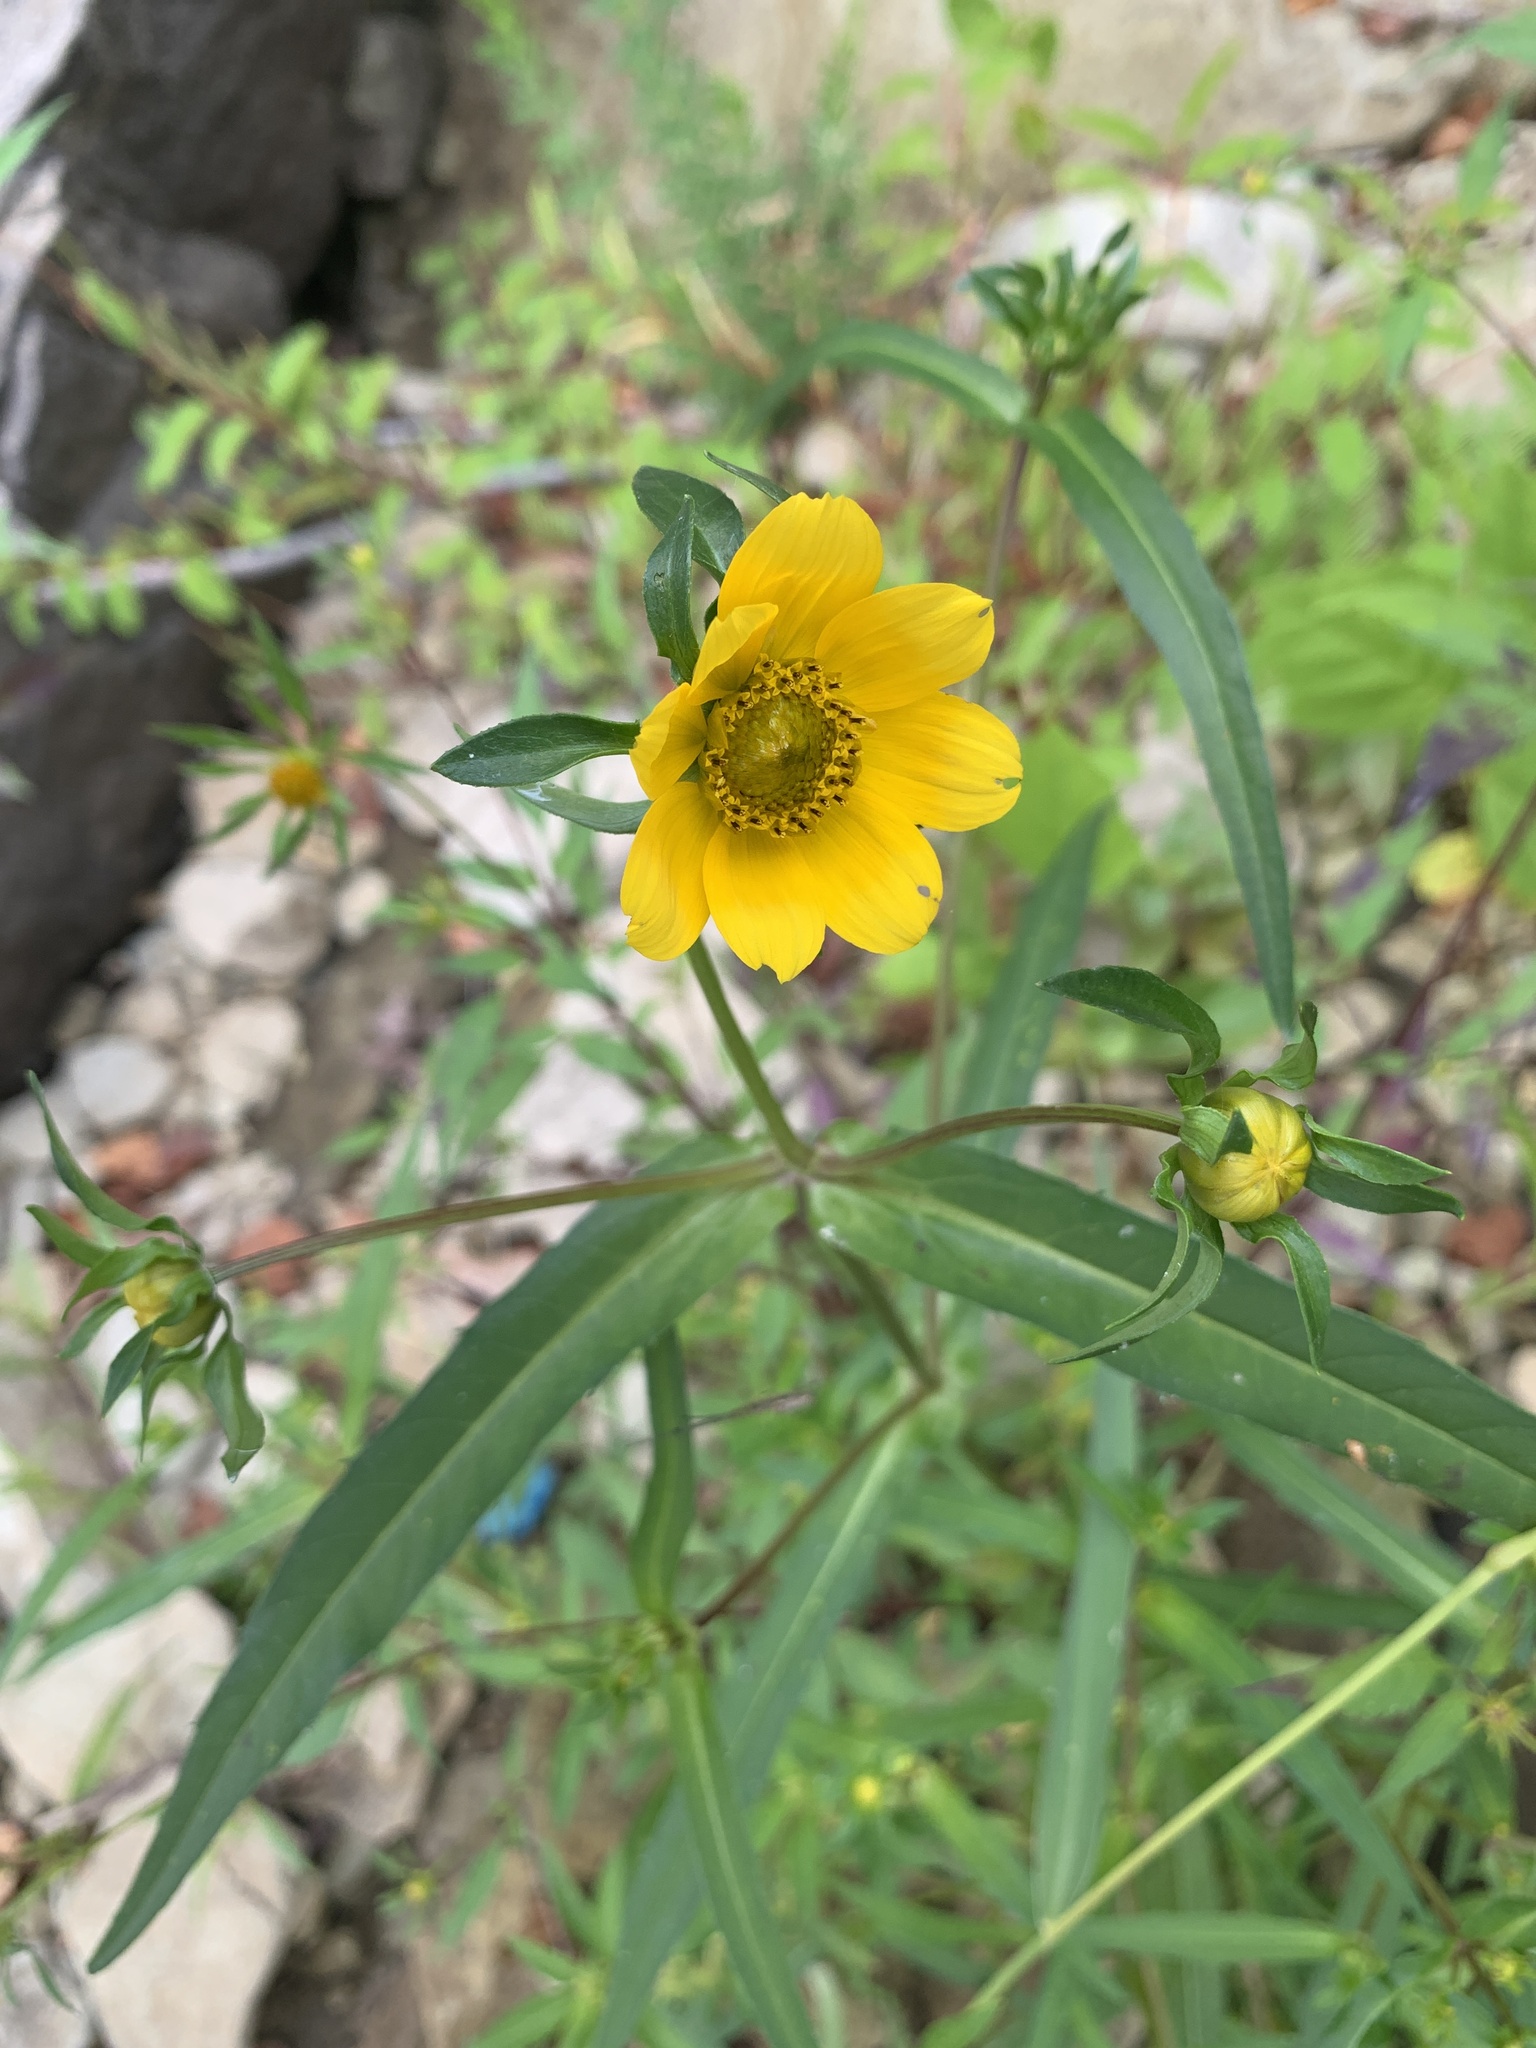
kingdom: Plantae
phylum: Tracheophyta
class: Magnoliopsida
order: Asterales
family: Asteraceae
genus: Bidens
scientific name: Bidens cernua
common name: Nodding bur-marigold
